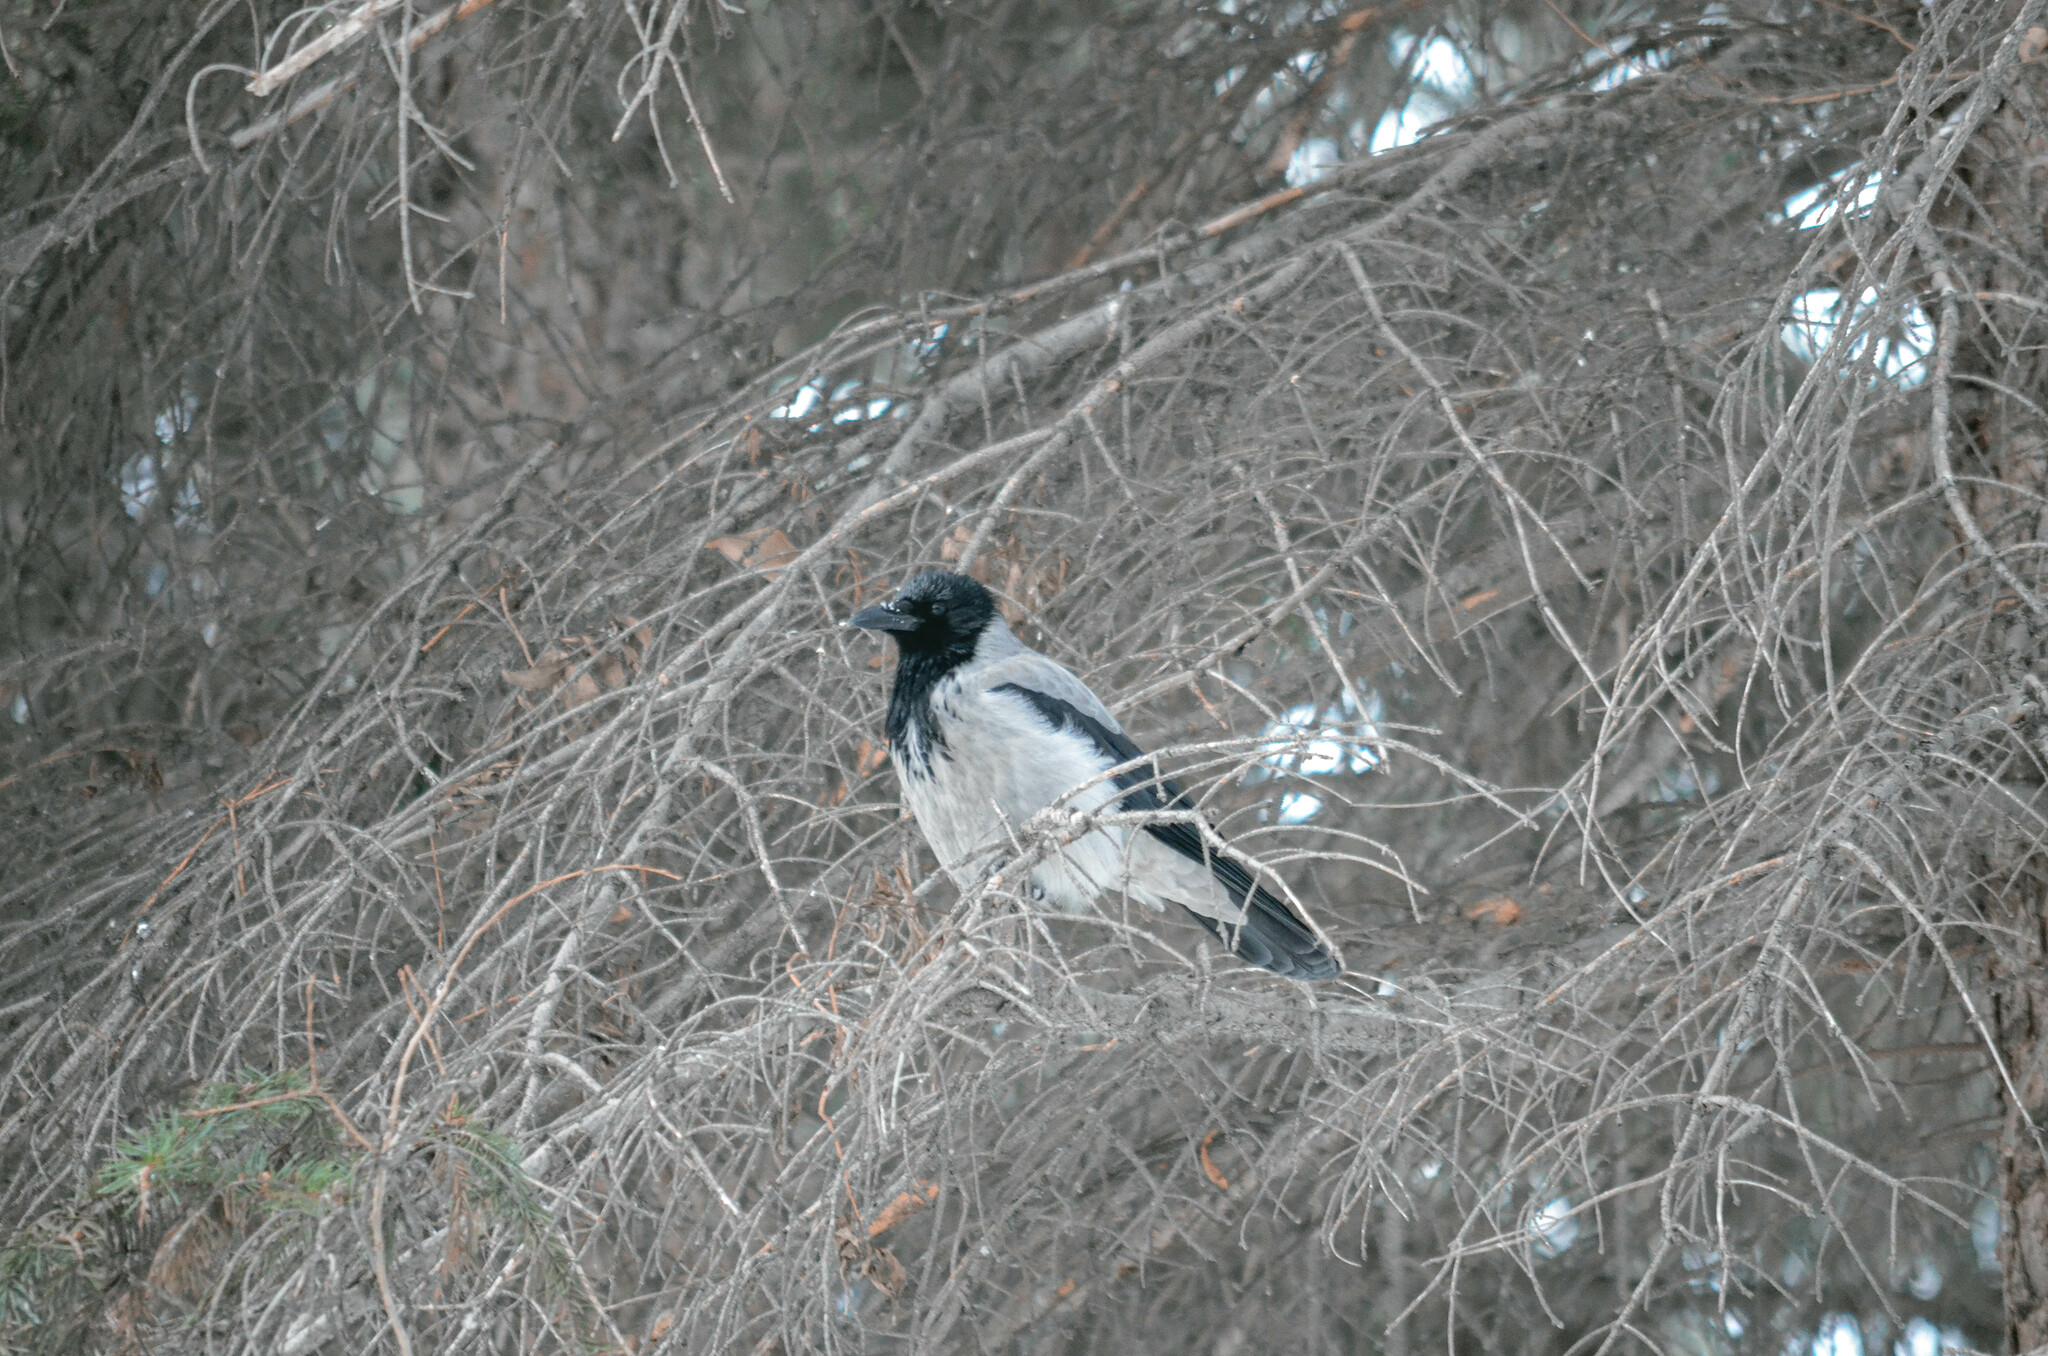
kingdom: Animalia
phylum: Chordata
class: Aves
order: Passeriformes
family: Corvidae
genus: Corvus
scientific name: Corvus cornix
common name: Hooded crow
